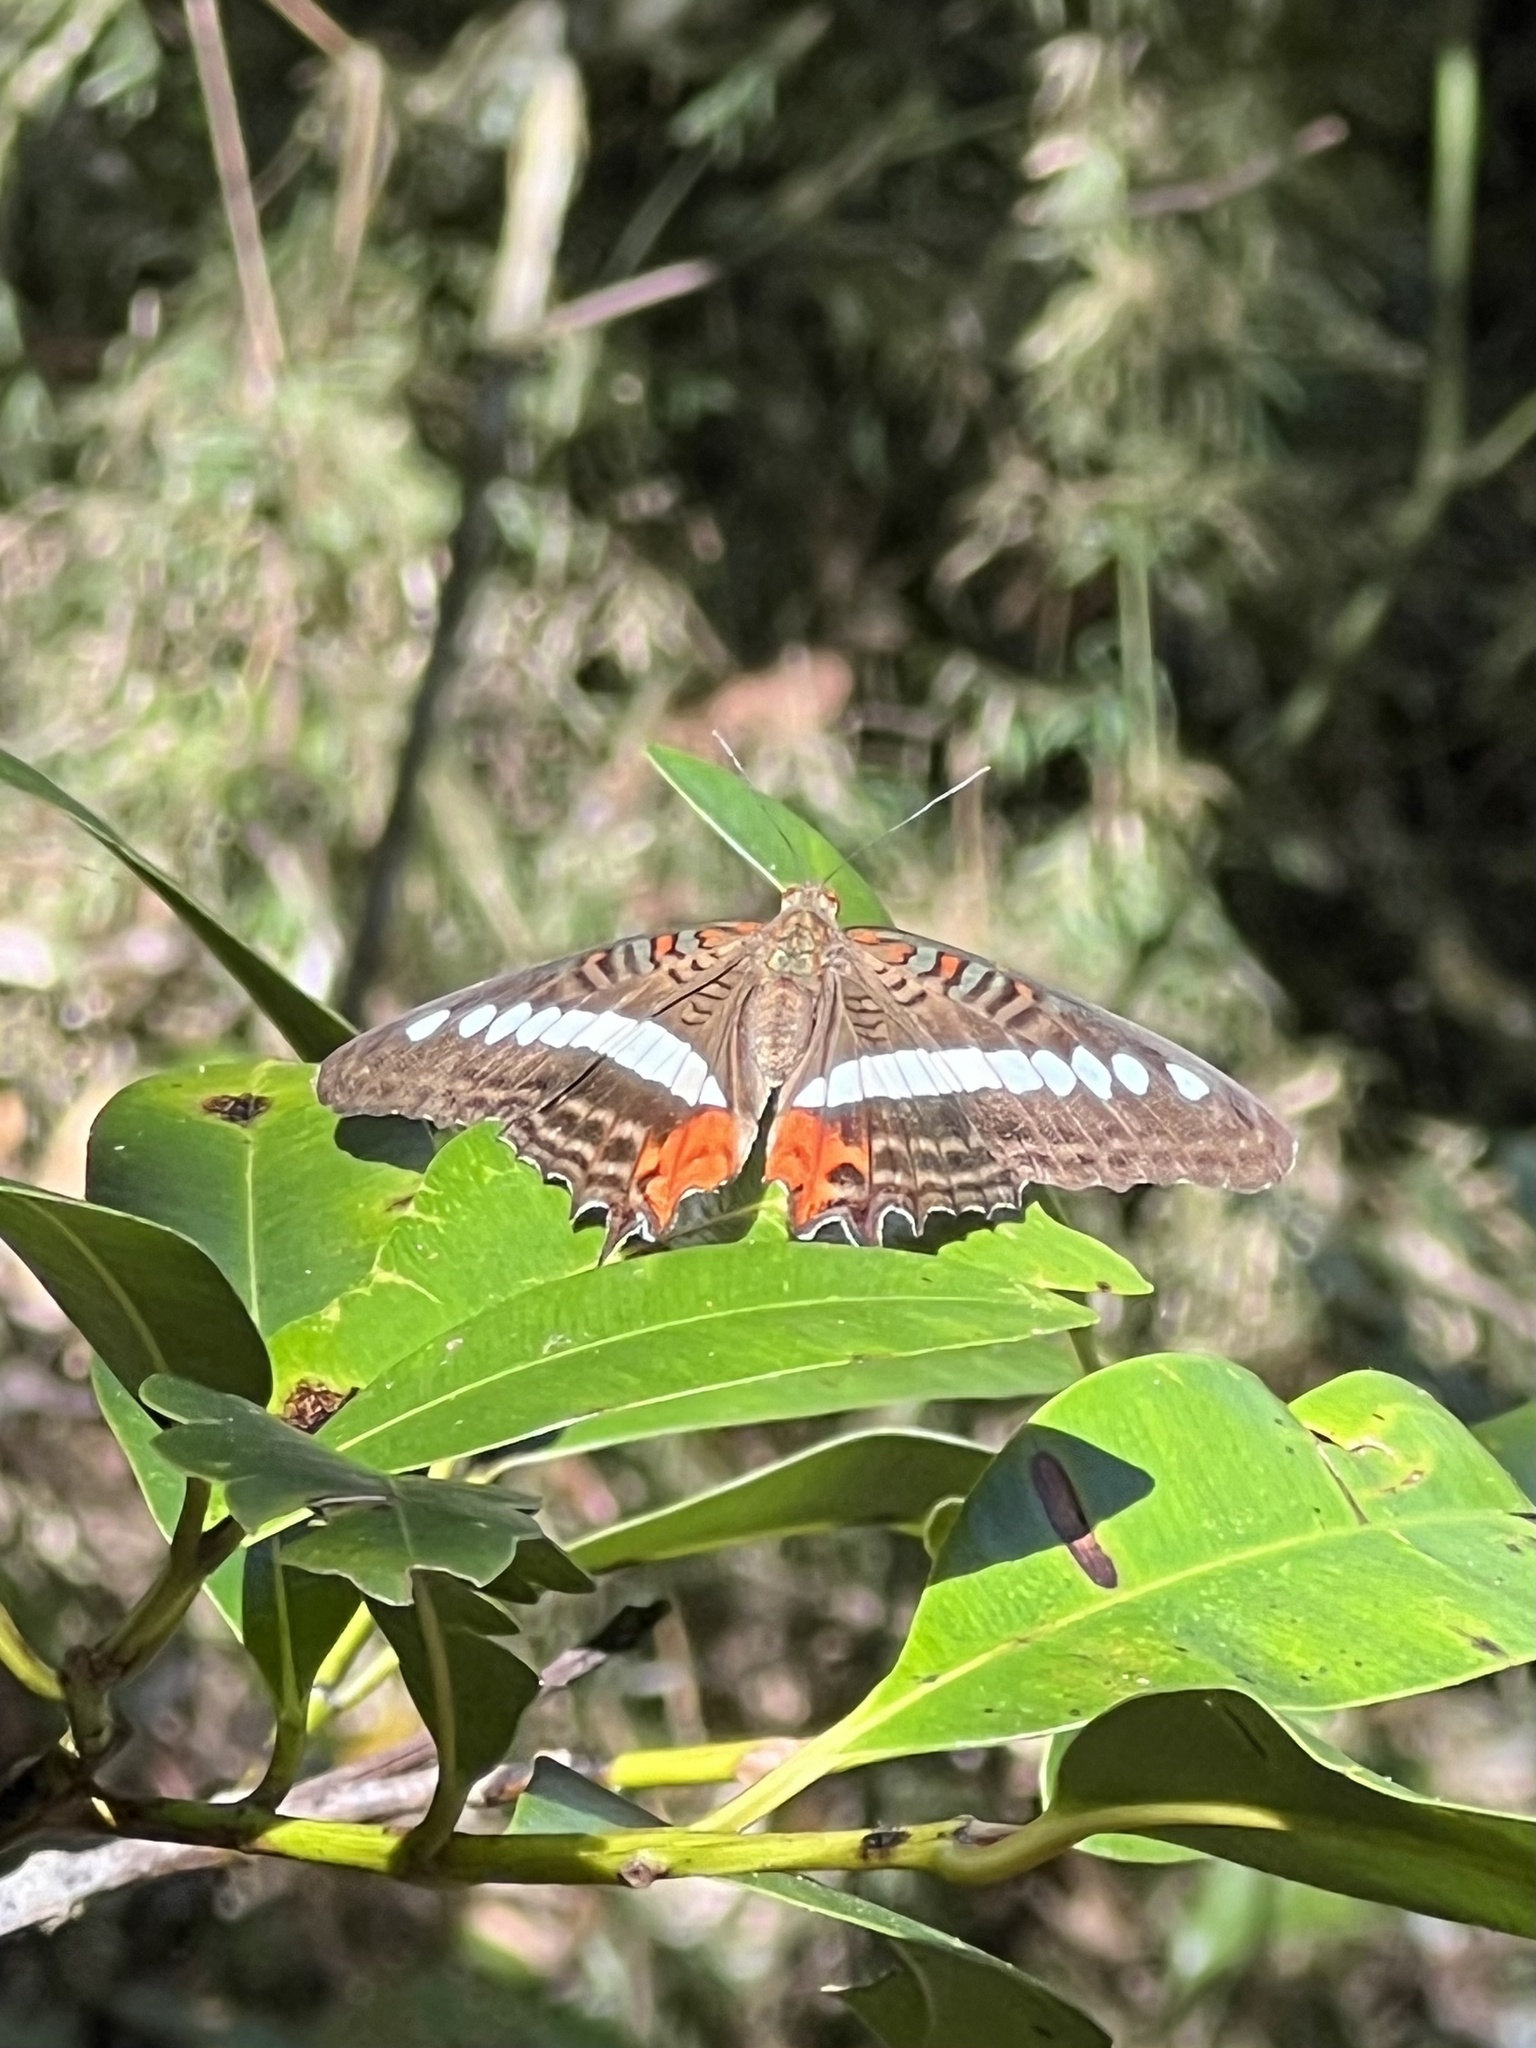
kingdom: Animalia
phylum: Arthropoda
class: Insecta
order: Lepidoptera
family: Nymphalidae
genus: Limenitis
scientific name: Limenitis gelania
